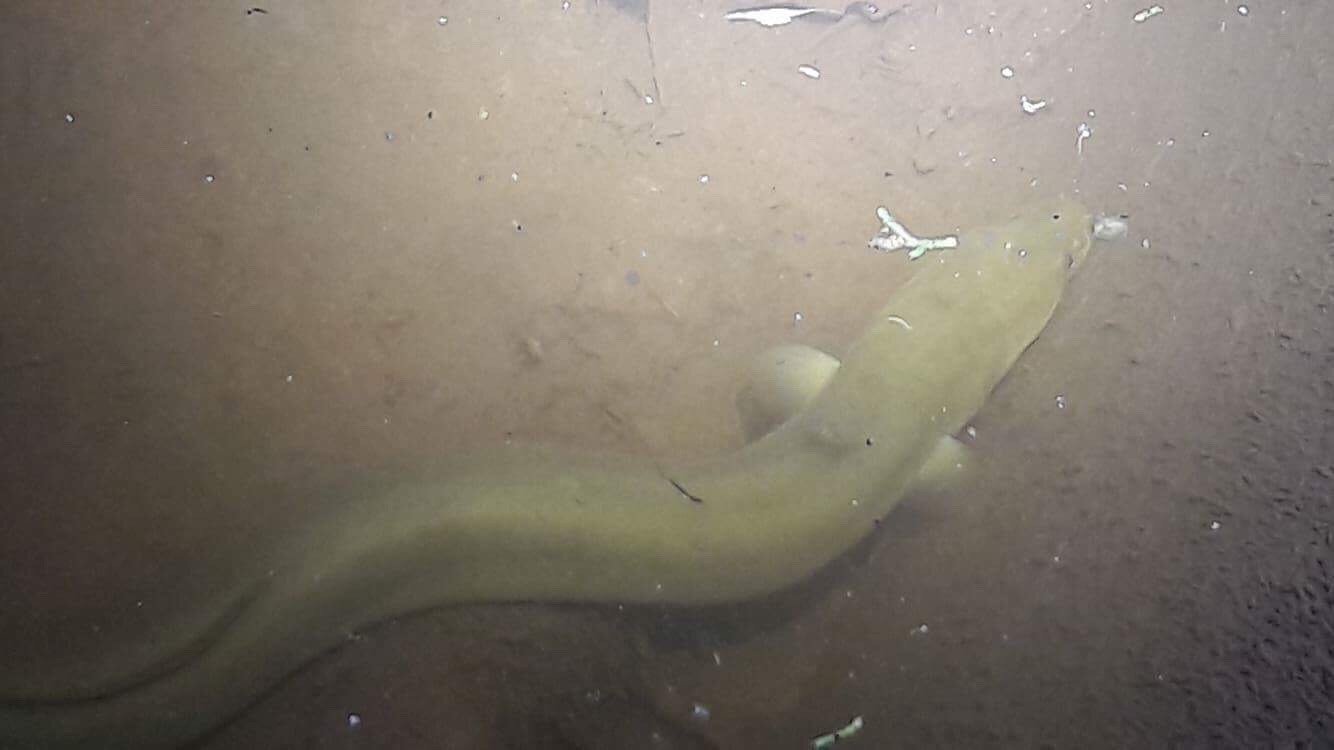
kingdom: Animalia
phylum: Chordata
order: Anguilliformes
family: Anguillidae
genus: Anguilla
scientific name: Anguilla australis
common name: Shortfin eel
